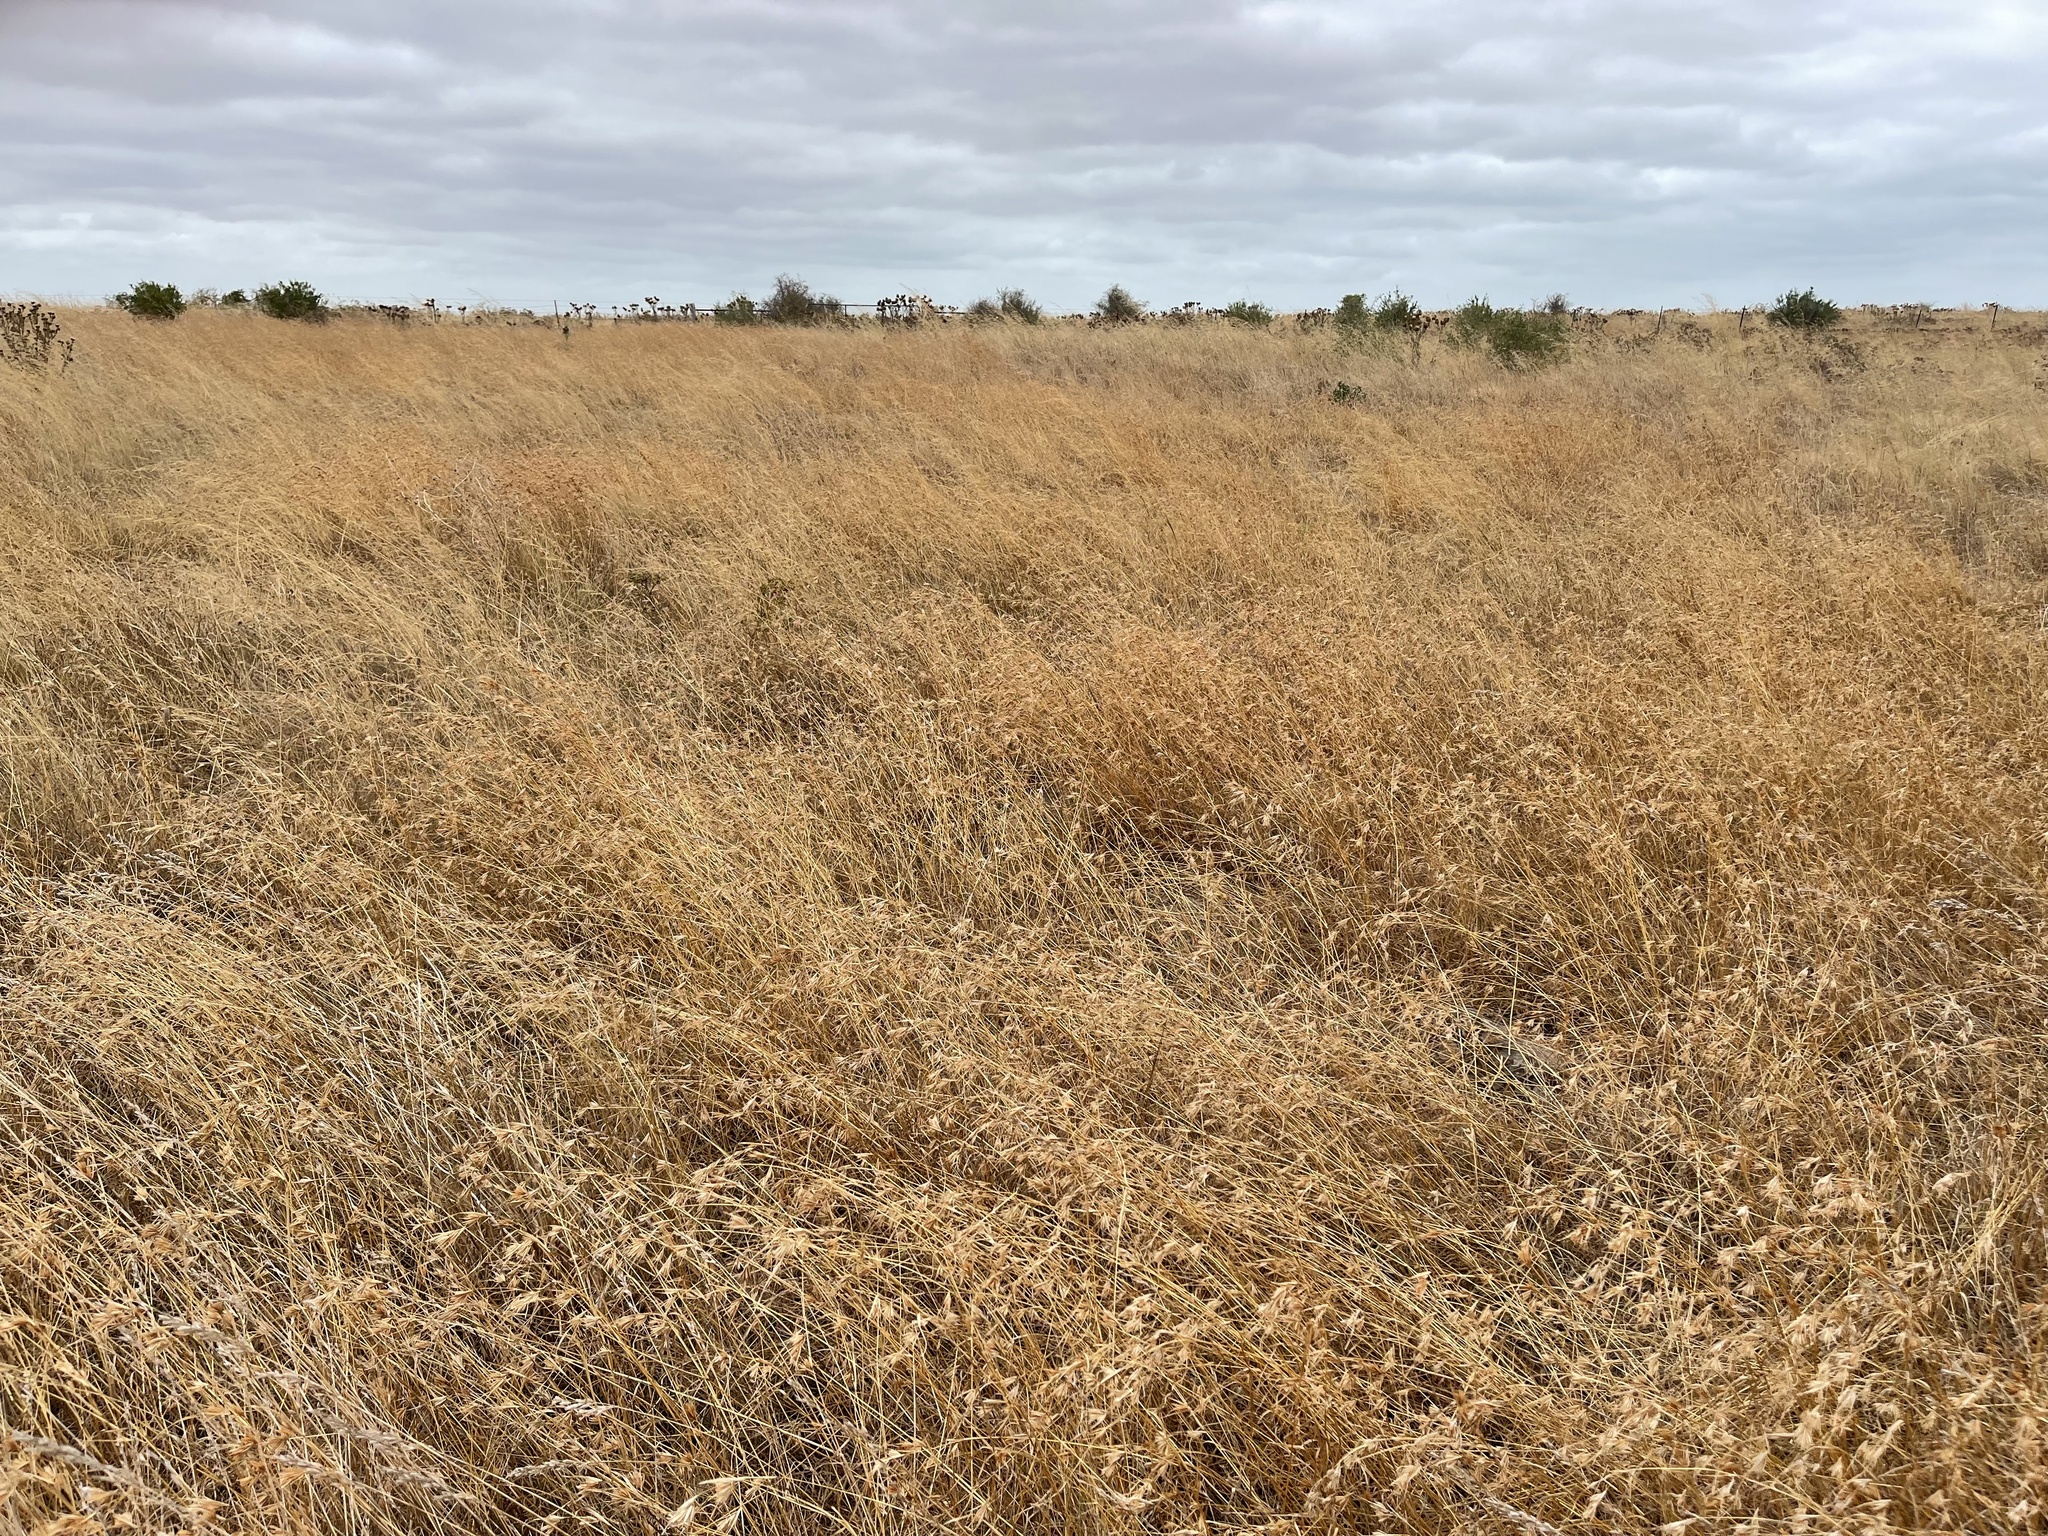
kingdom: Plantae
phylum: Tracheophyta
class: Liliopsida
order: Poales
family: Poaceae
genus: Themeda
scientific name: Themeda triandra
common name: Kangaroo grass
